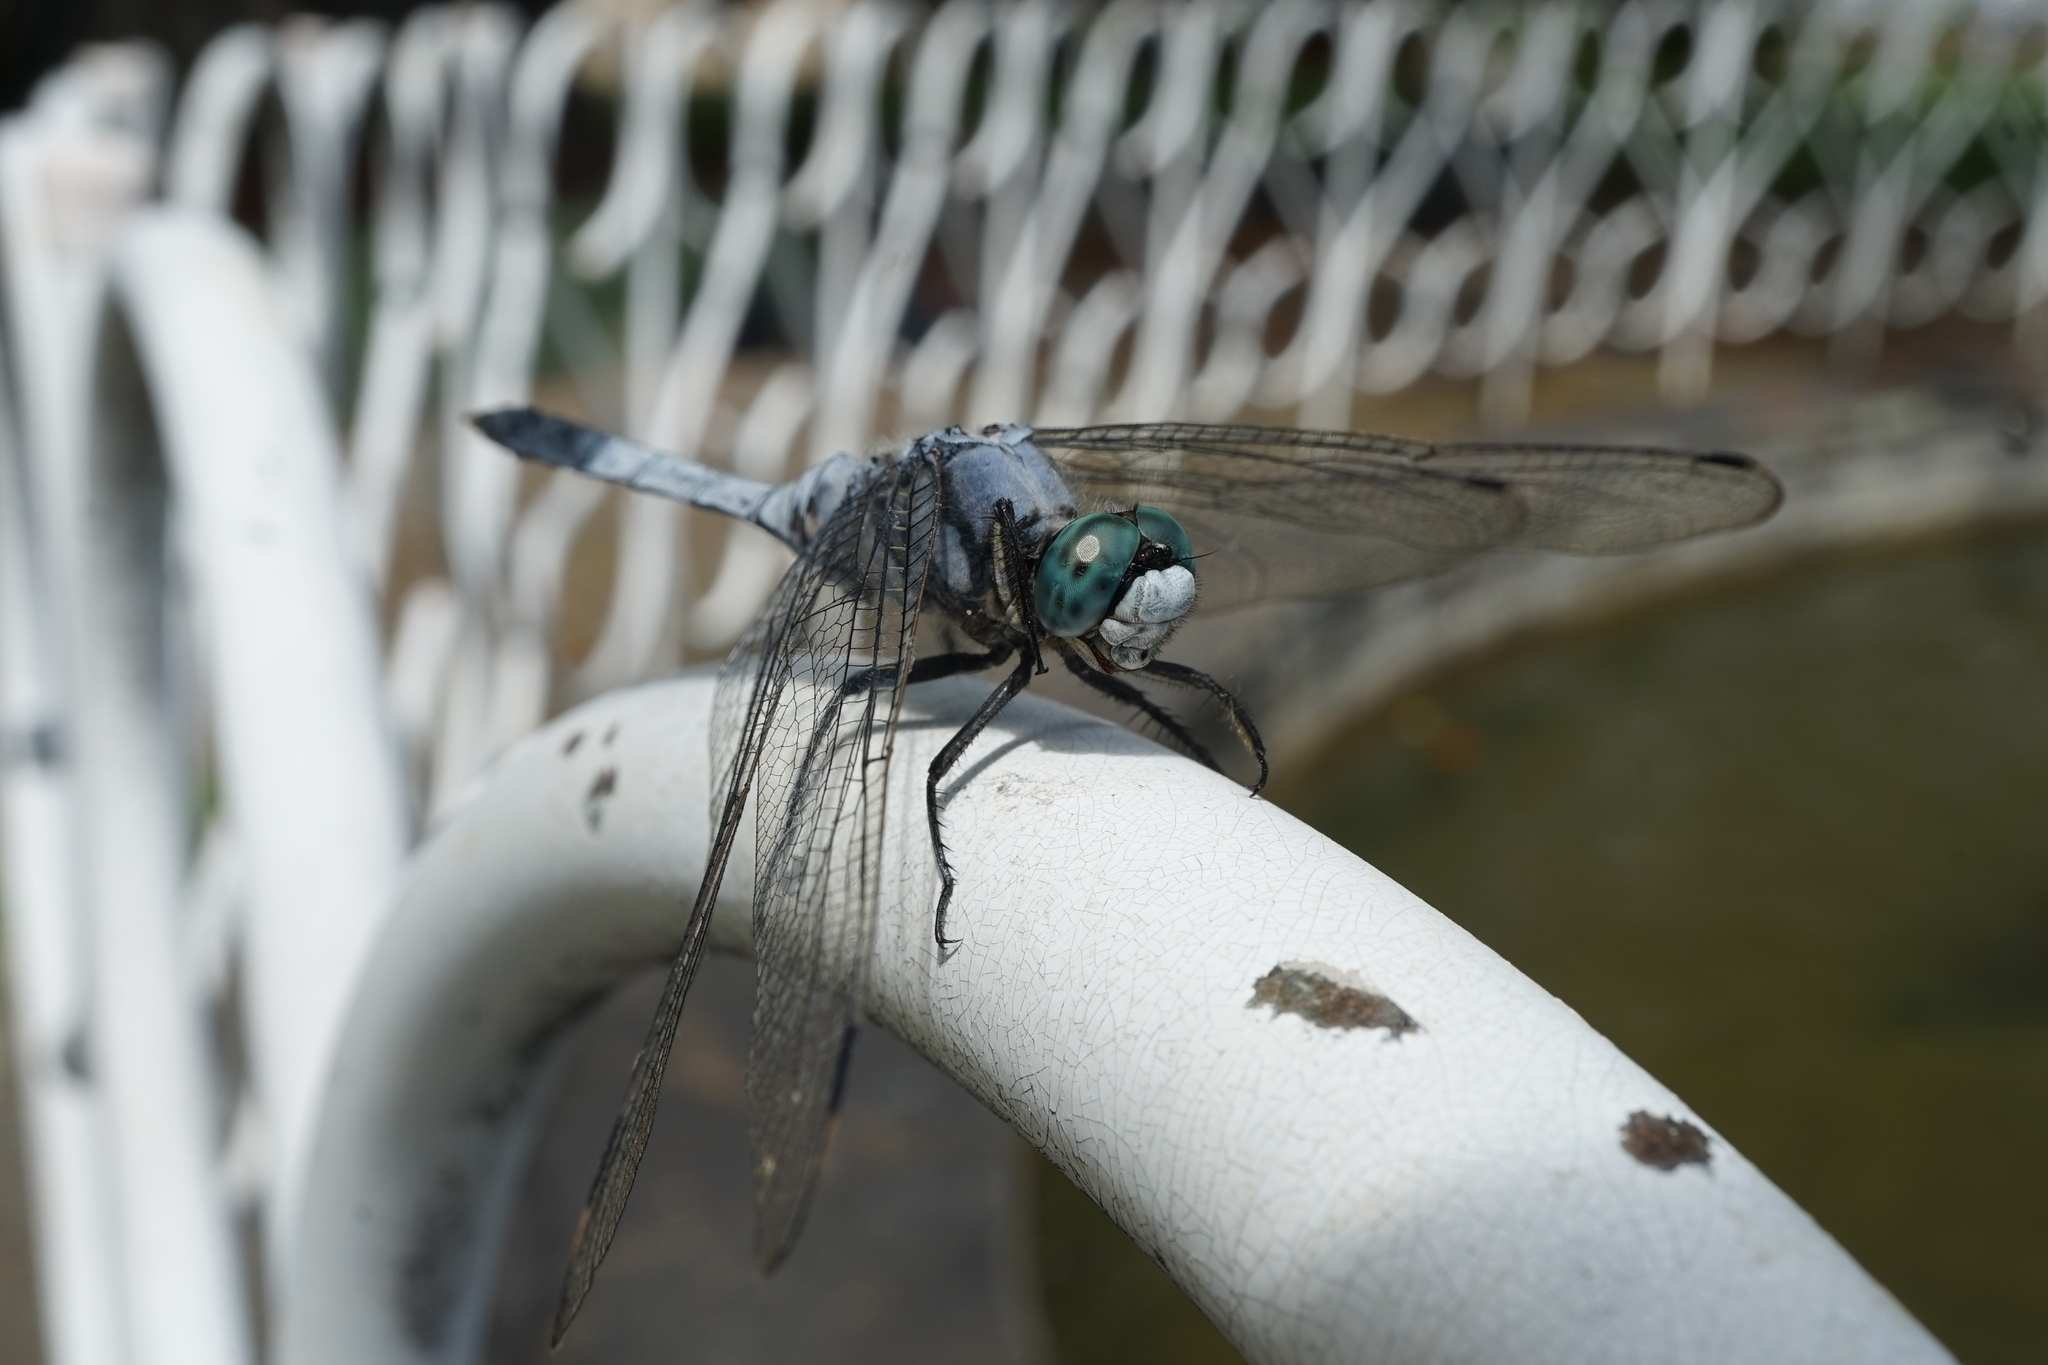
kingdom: Animalia
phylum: Arthropoda
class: Insecta
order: Odonata
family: Libellulidae
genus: Orthetrum
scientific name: Orthetrum albistylum
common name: White-tailed skimmer
